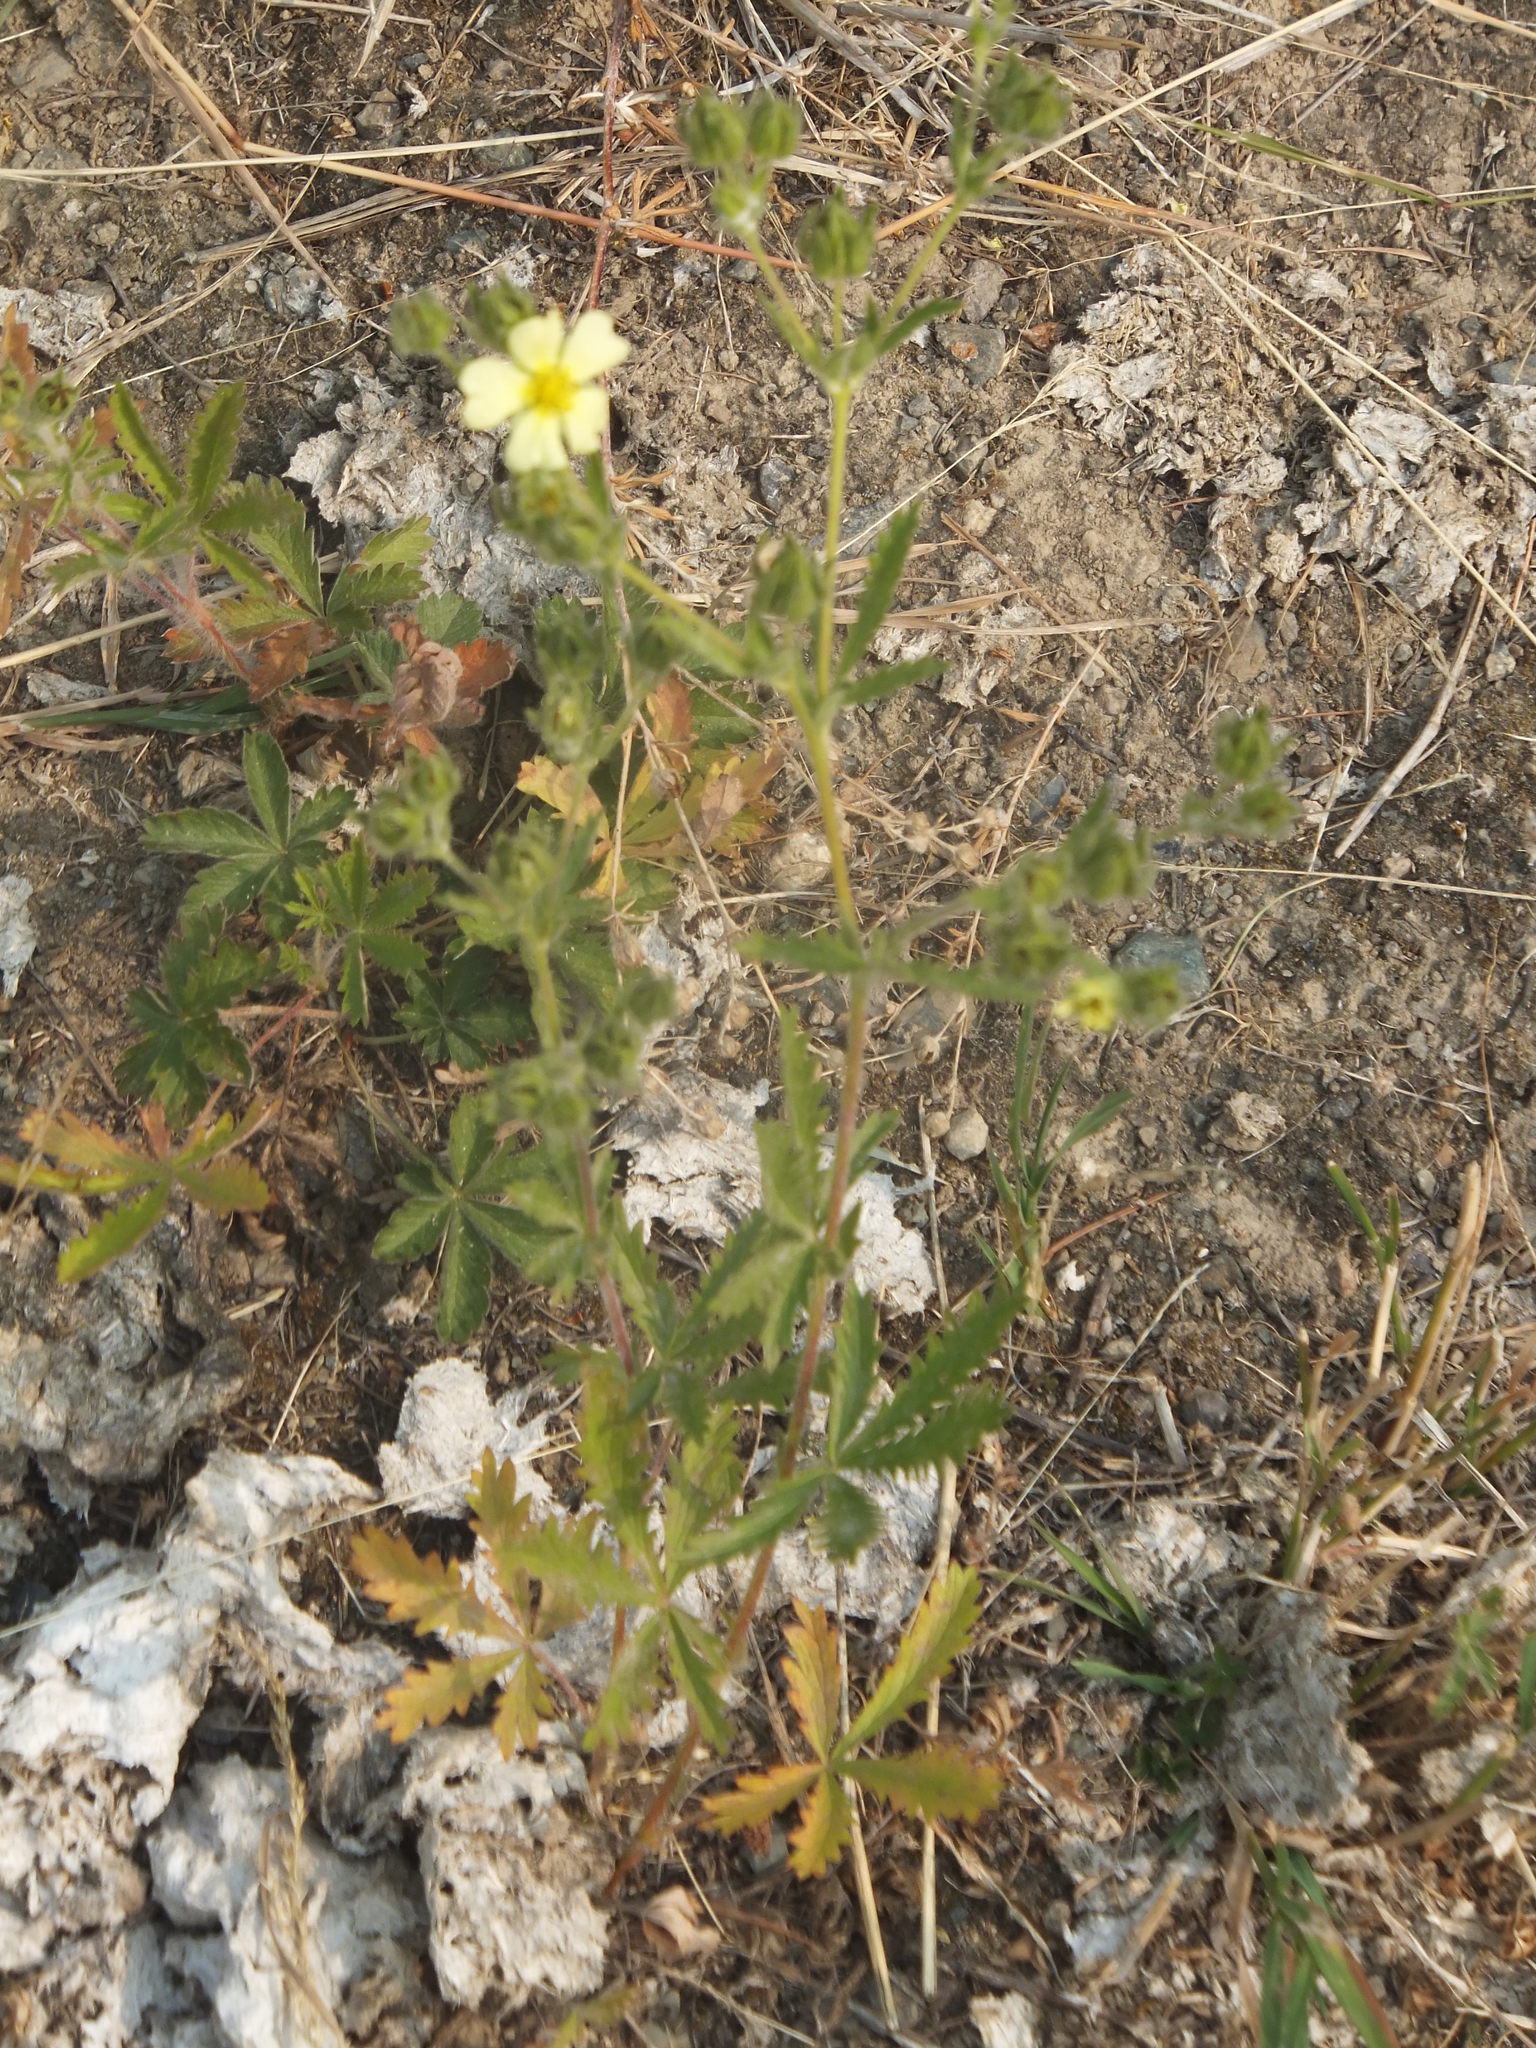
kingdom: Plantae
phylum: Tracheophyta
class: Magnoliopsida
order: Rosales
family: Rosaceae
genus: Potentilla
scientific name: Potentilla recta
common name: Sulphur cinquefoil
